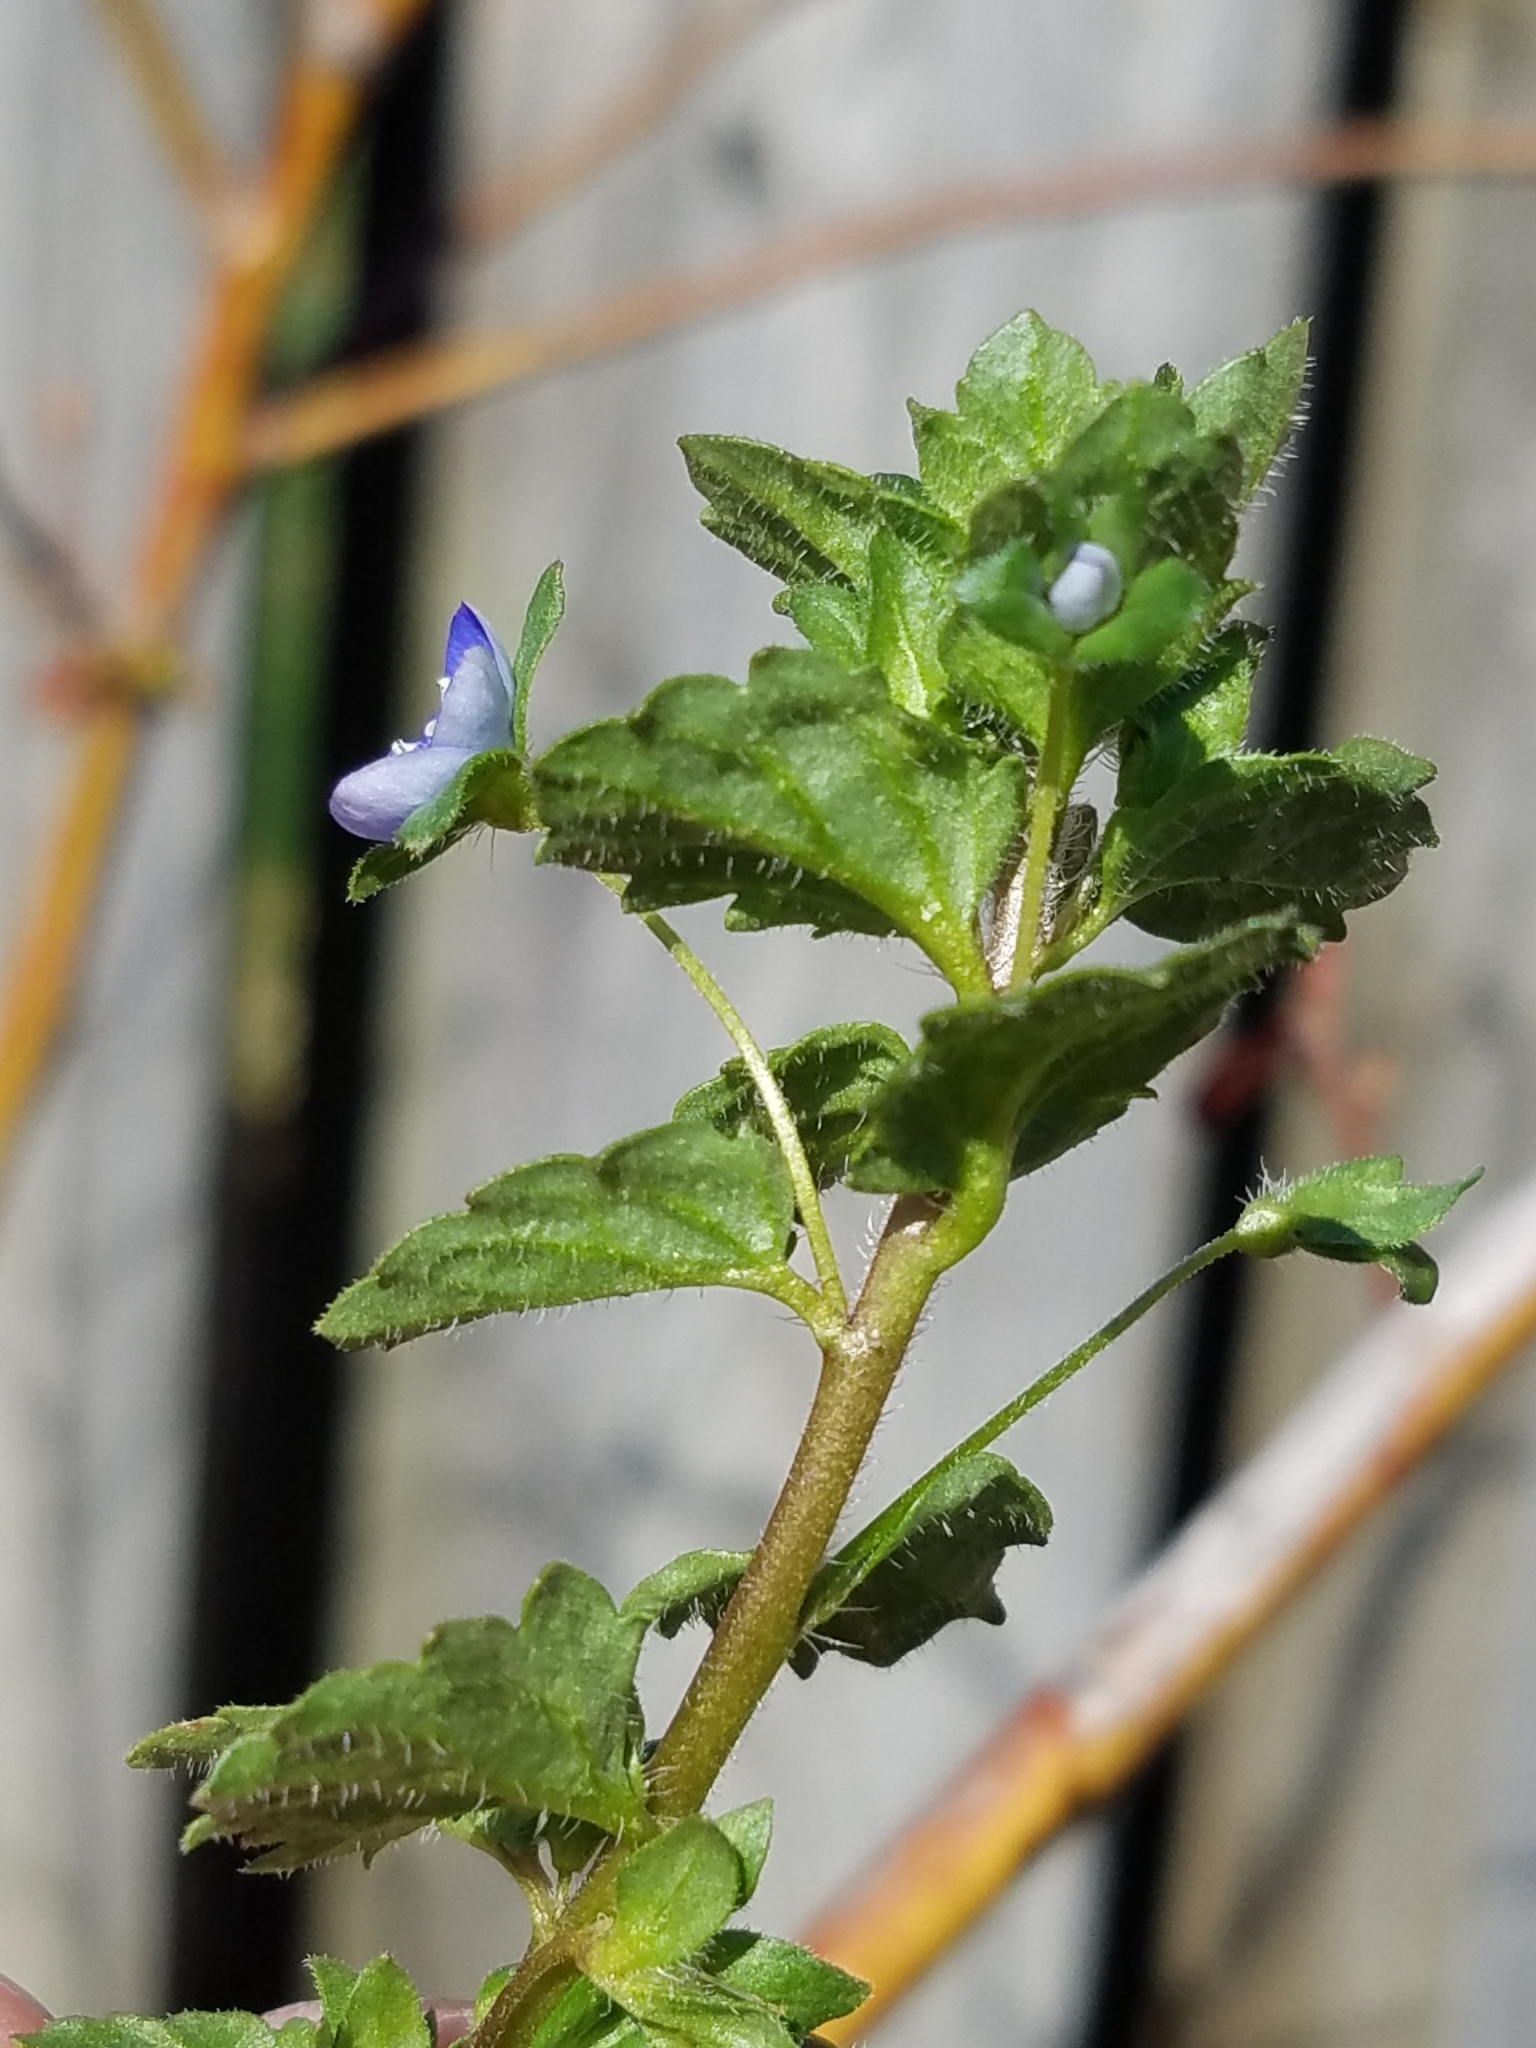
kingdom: Plantae
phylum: Tracheophyta
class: Magnoliopsida
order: Lamiales
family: Plantaginaceae
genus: Veronica
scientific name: Veronica persica
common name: Common field-speedwell
